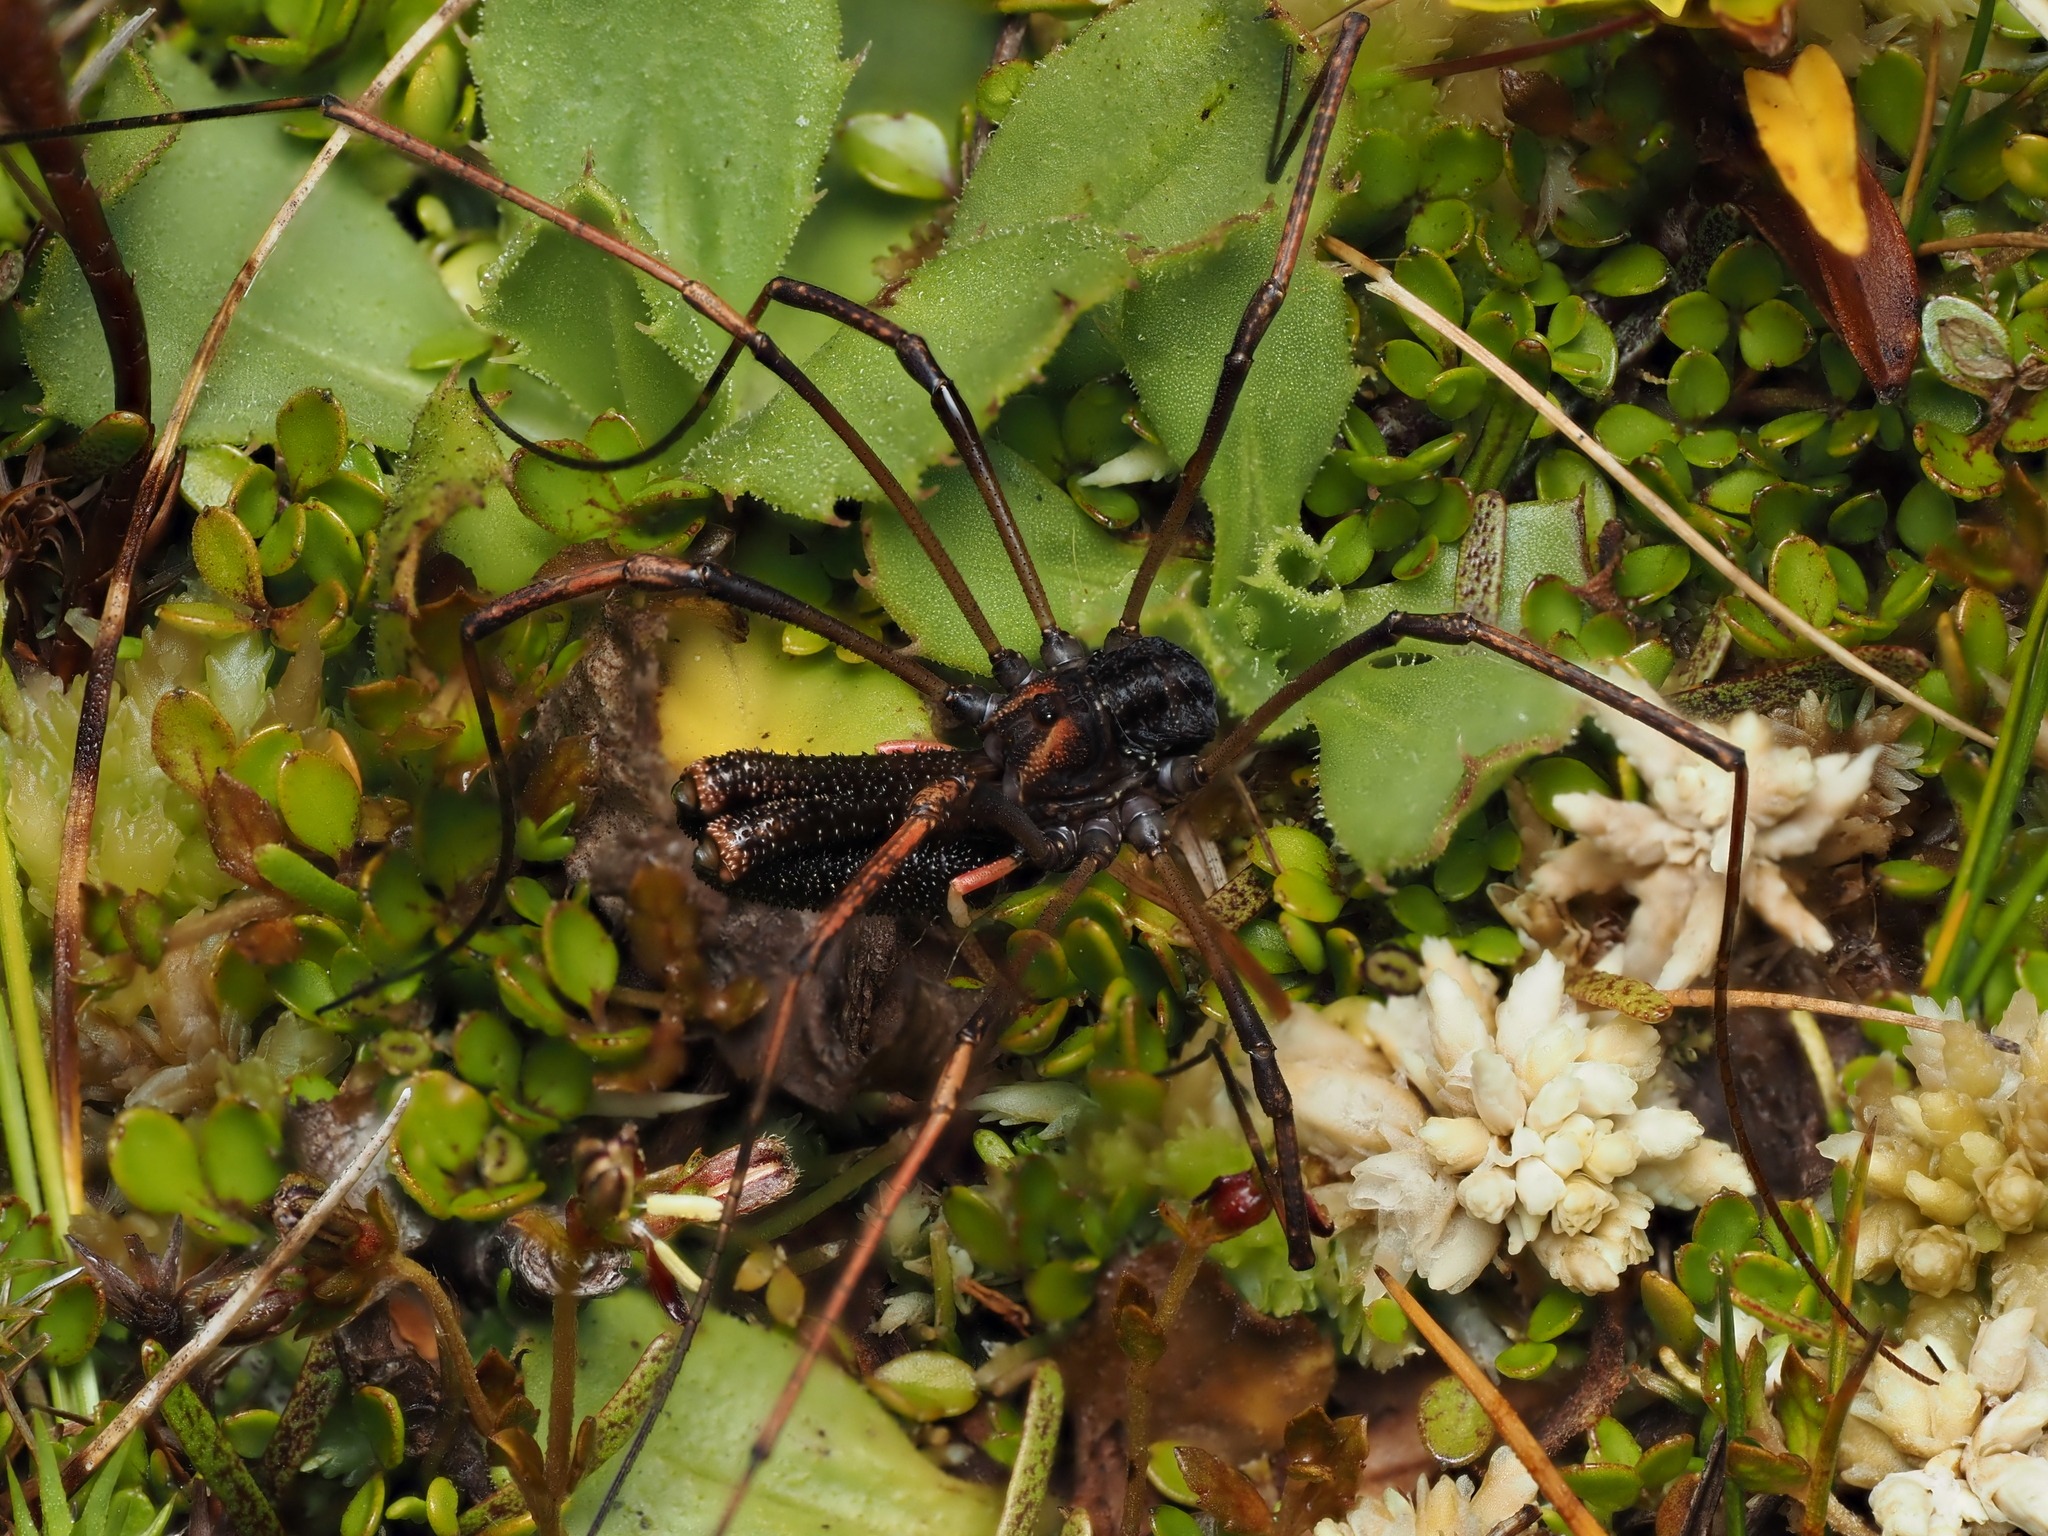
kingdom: Animalia
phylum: Arthropoda
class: Arachnida
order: Opiliones
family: Neopilionidae
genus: Forsteropsalis
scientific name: Forsteropsalis inconstans
